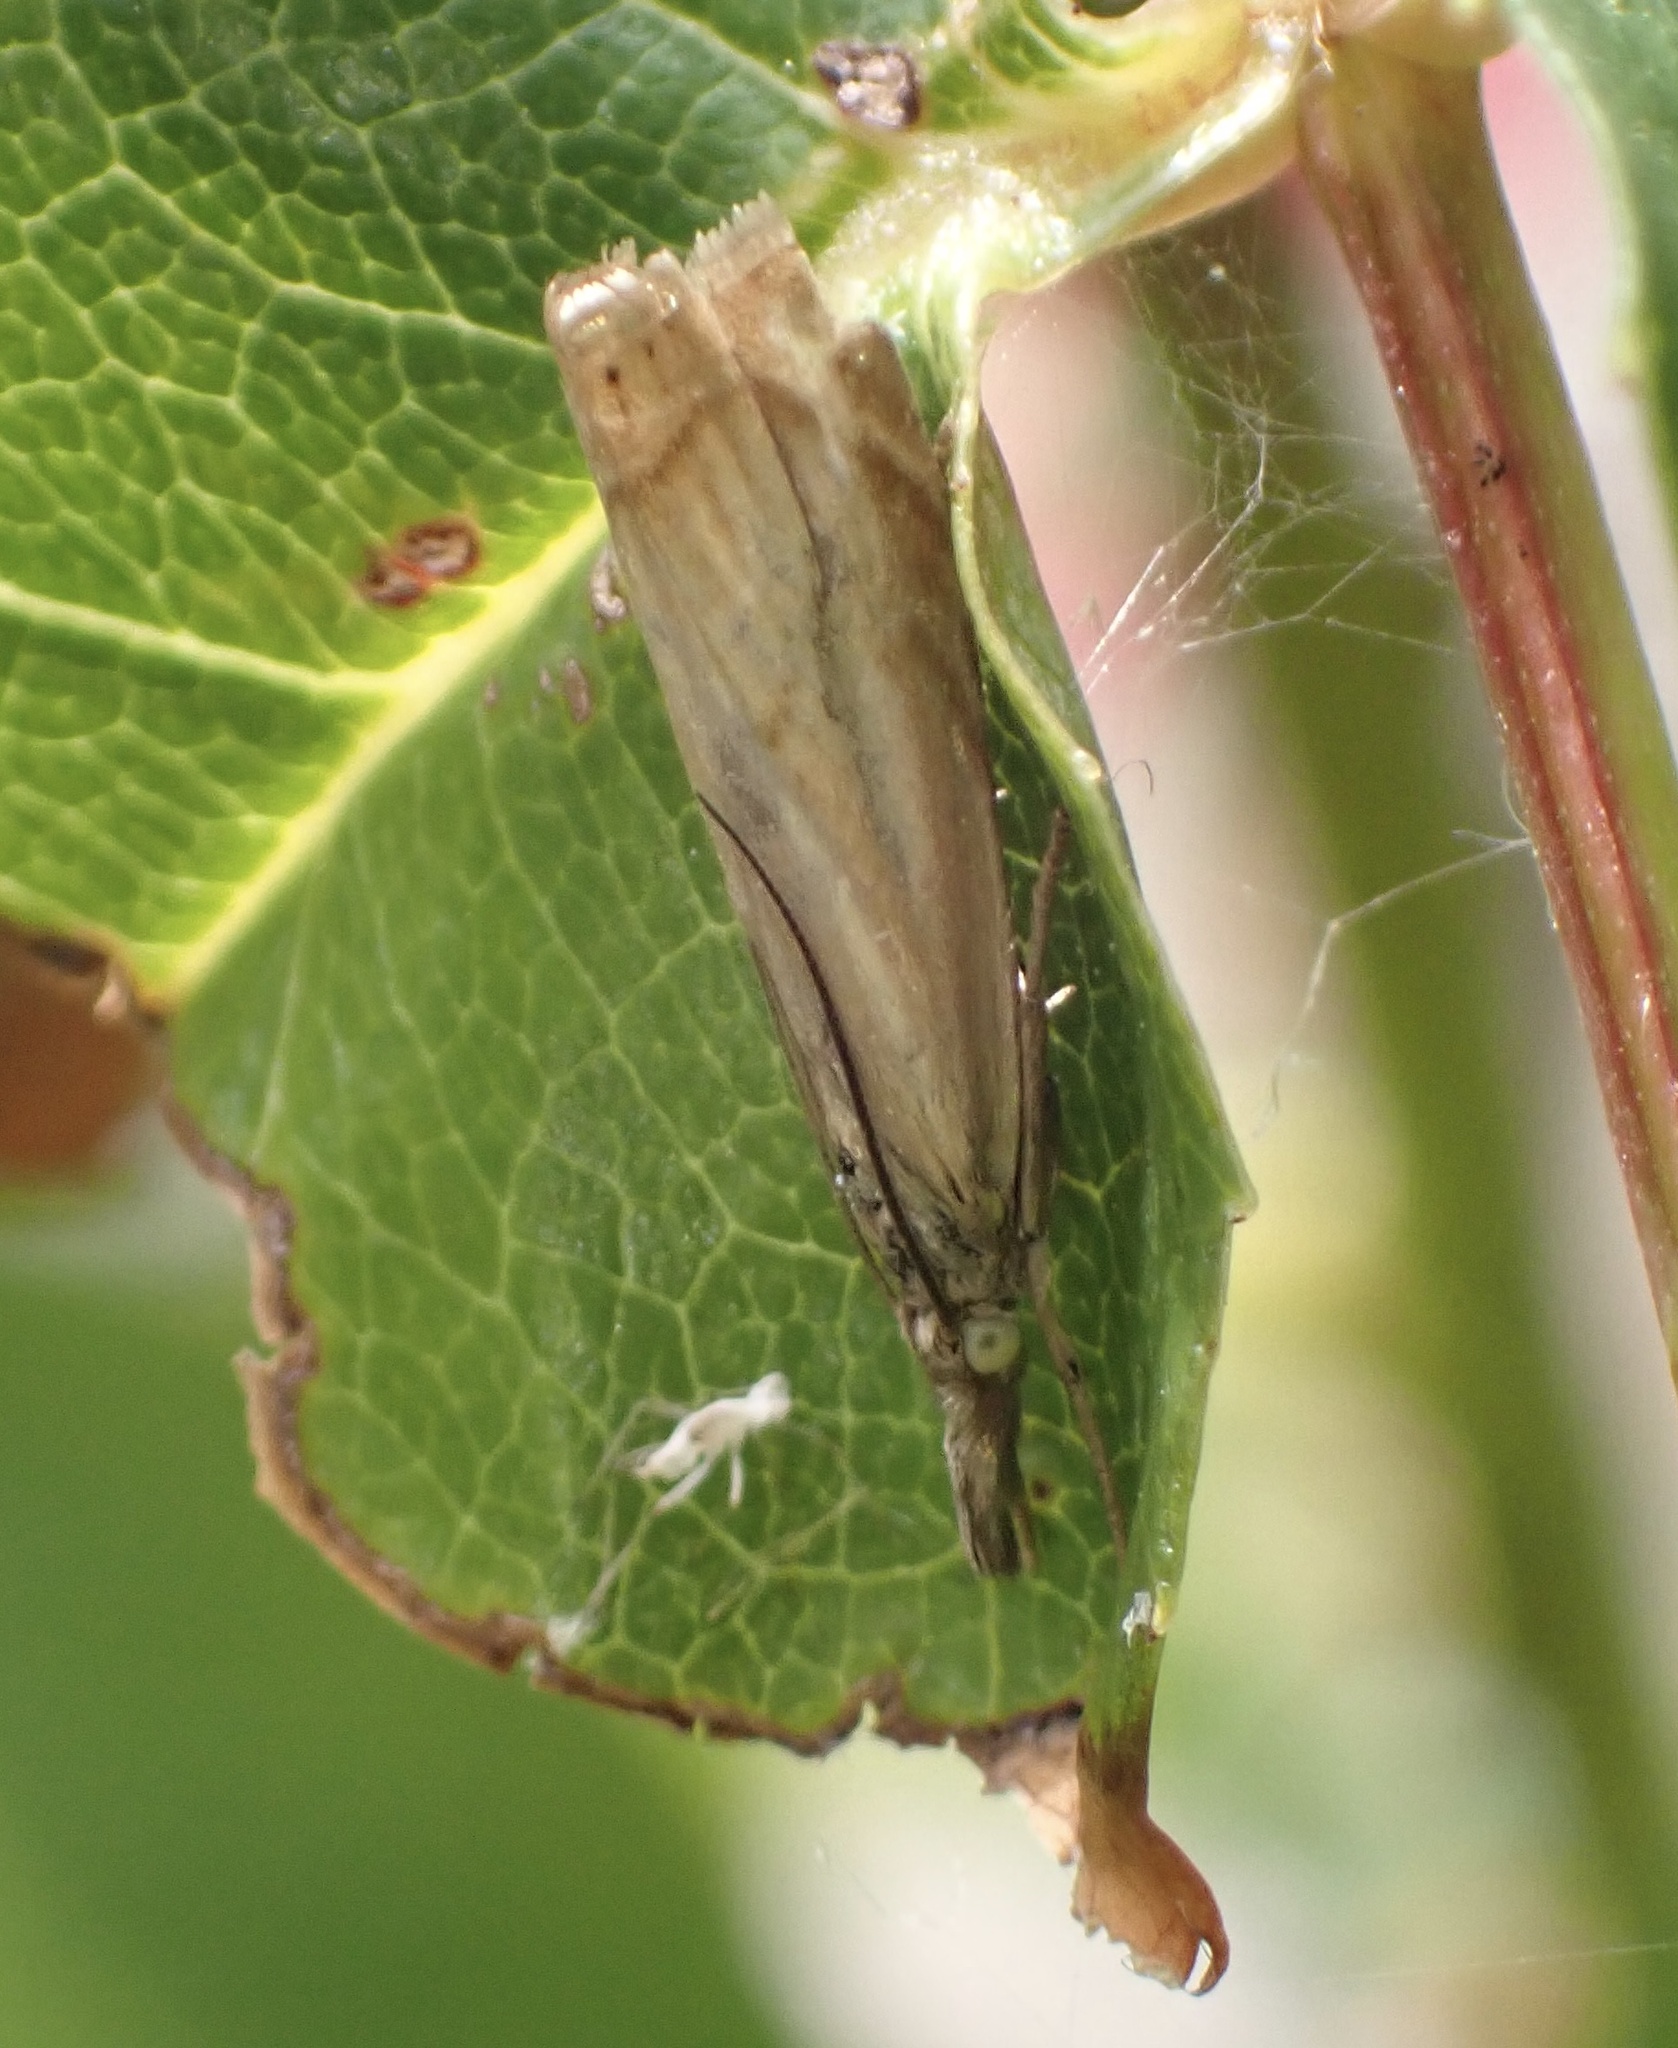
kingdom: Animalia
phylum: Arthropoda
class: Insecta
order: Lepidoptera
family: Crambidae
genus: Chrysoteuchia
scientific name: Chrysoteuchia culmella
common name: Garden grass-veneer
